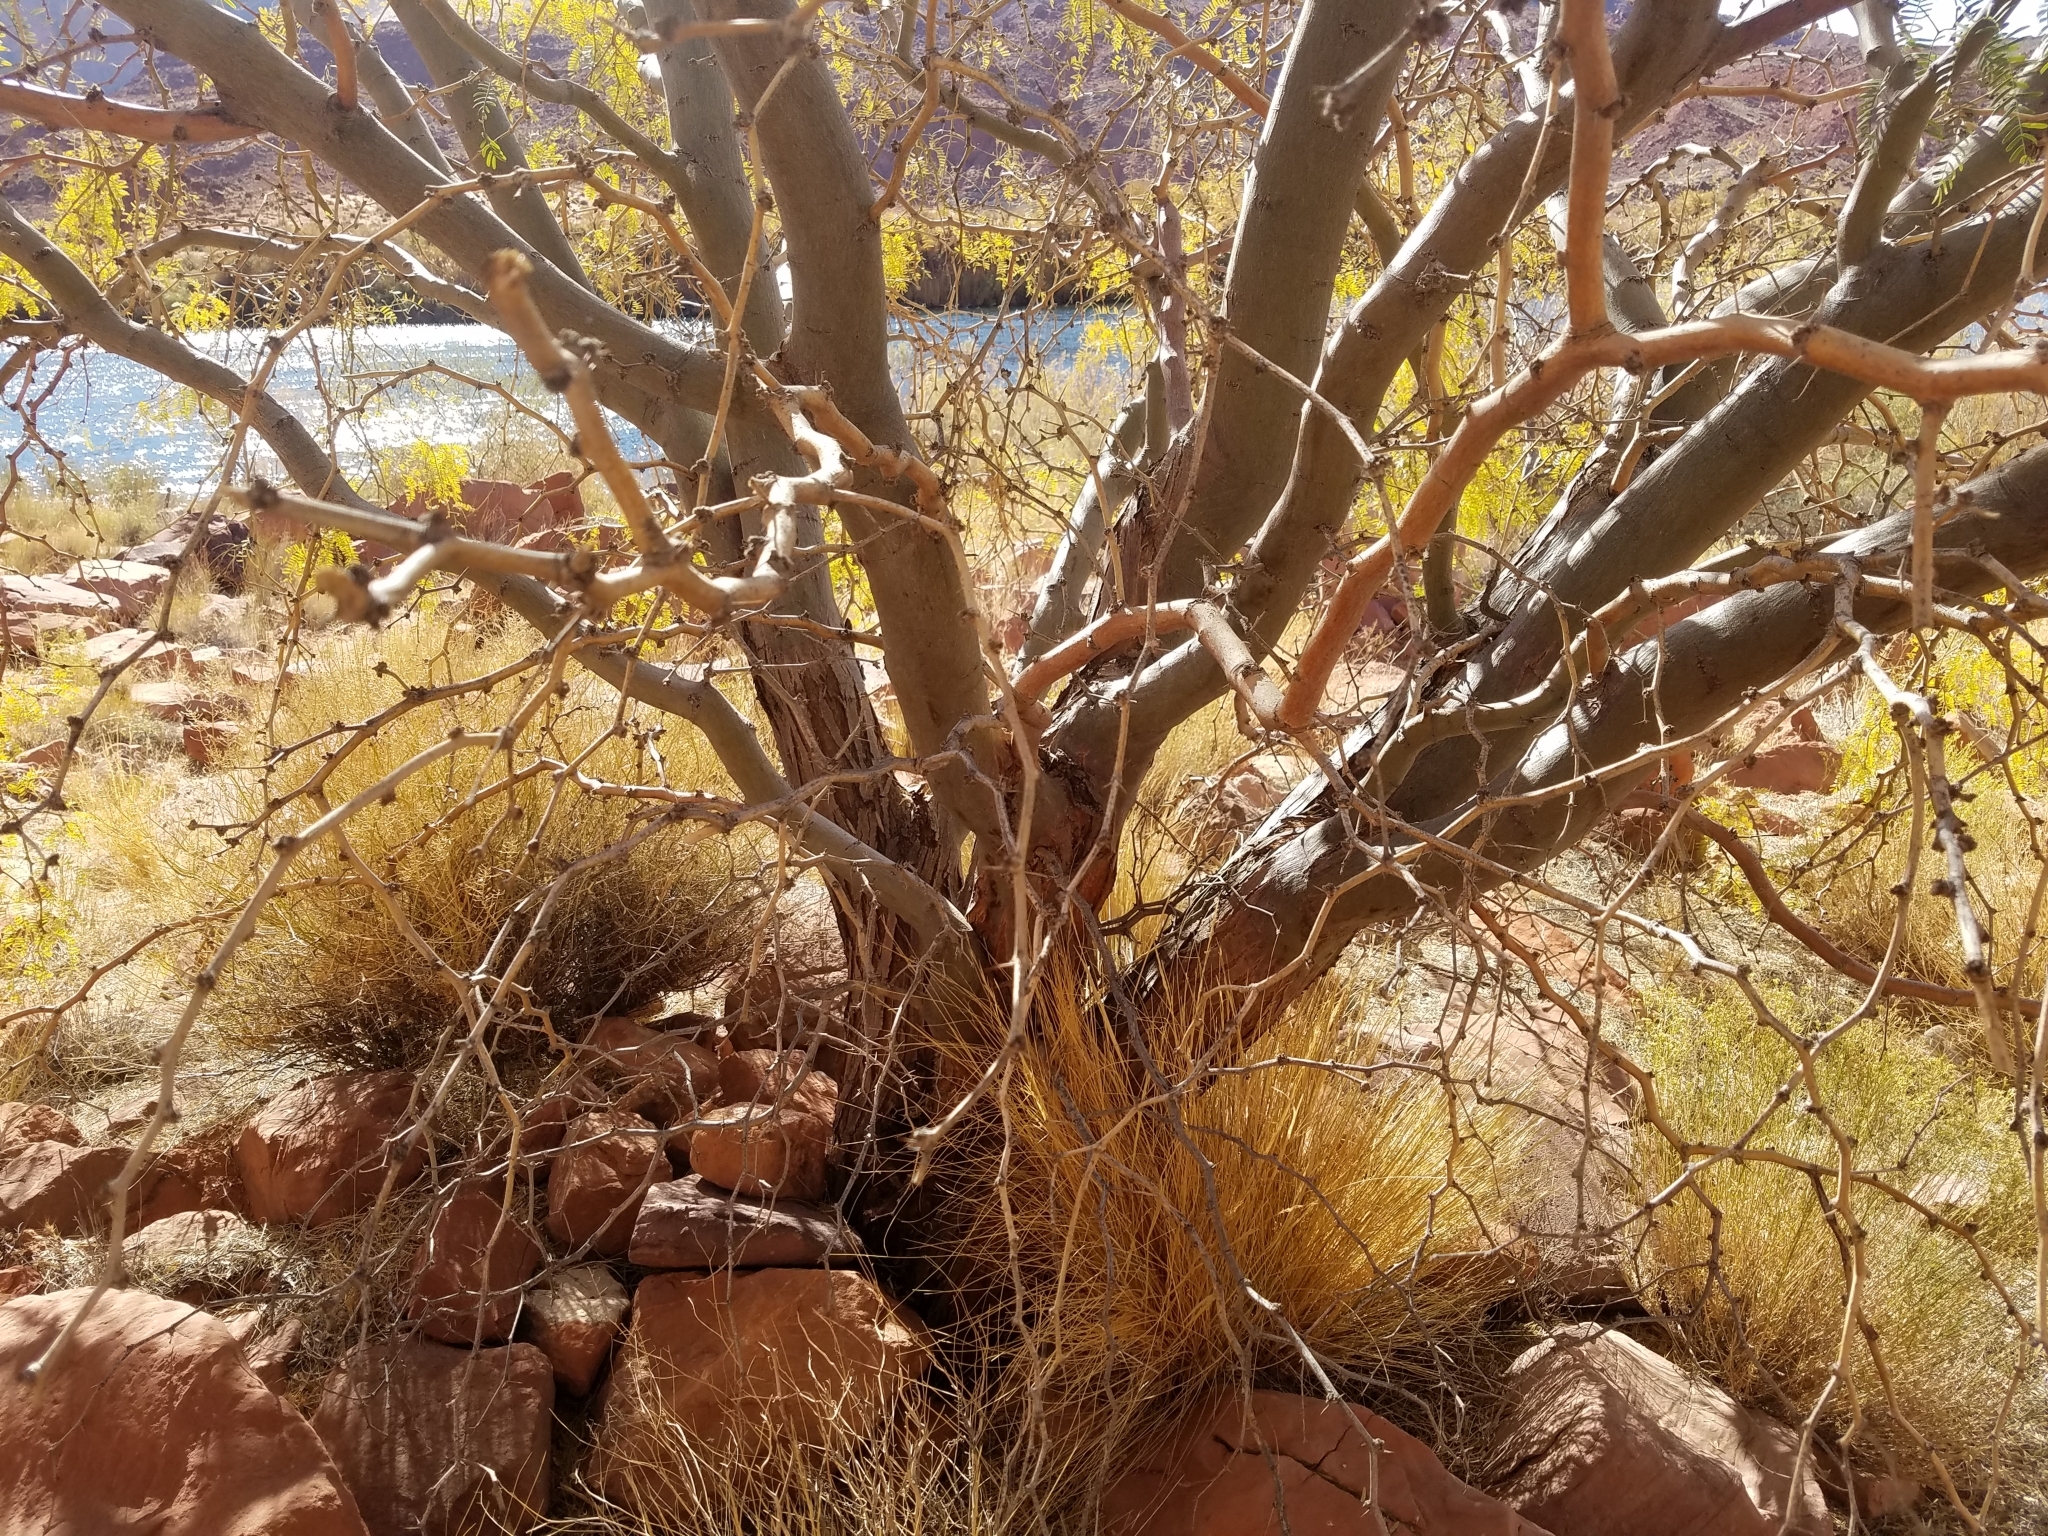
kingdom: Plantae
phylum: Tracheophyta
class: Magnoliopsida
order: Fabales
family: Fabaceae
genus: Prosopis
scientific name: Prosopis velutina
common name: Velvet mesquite
